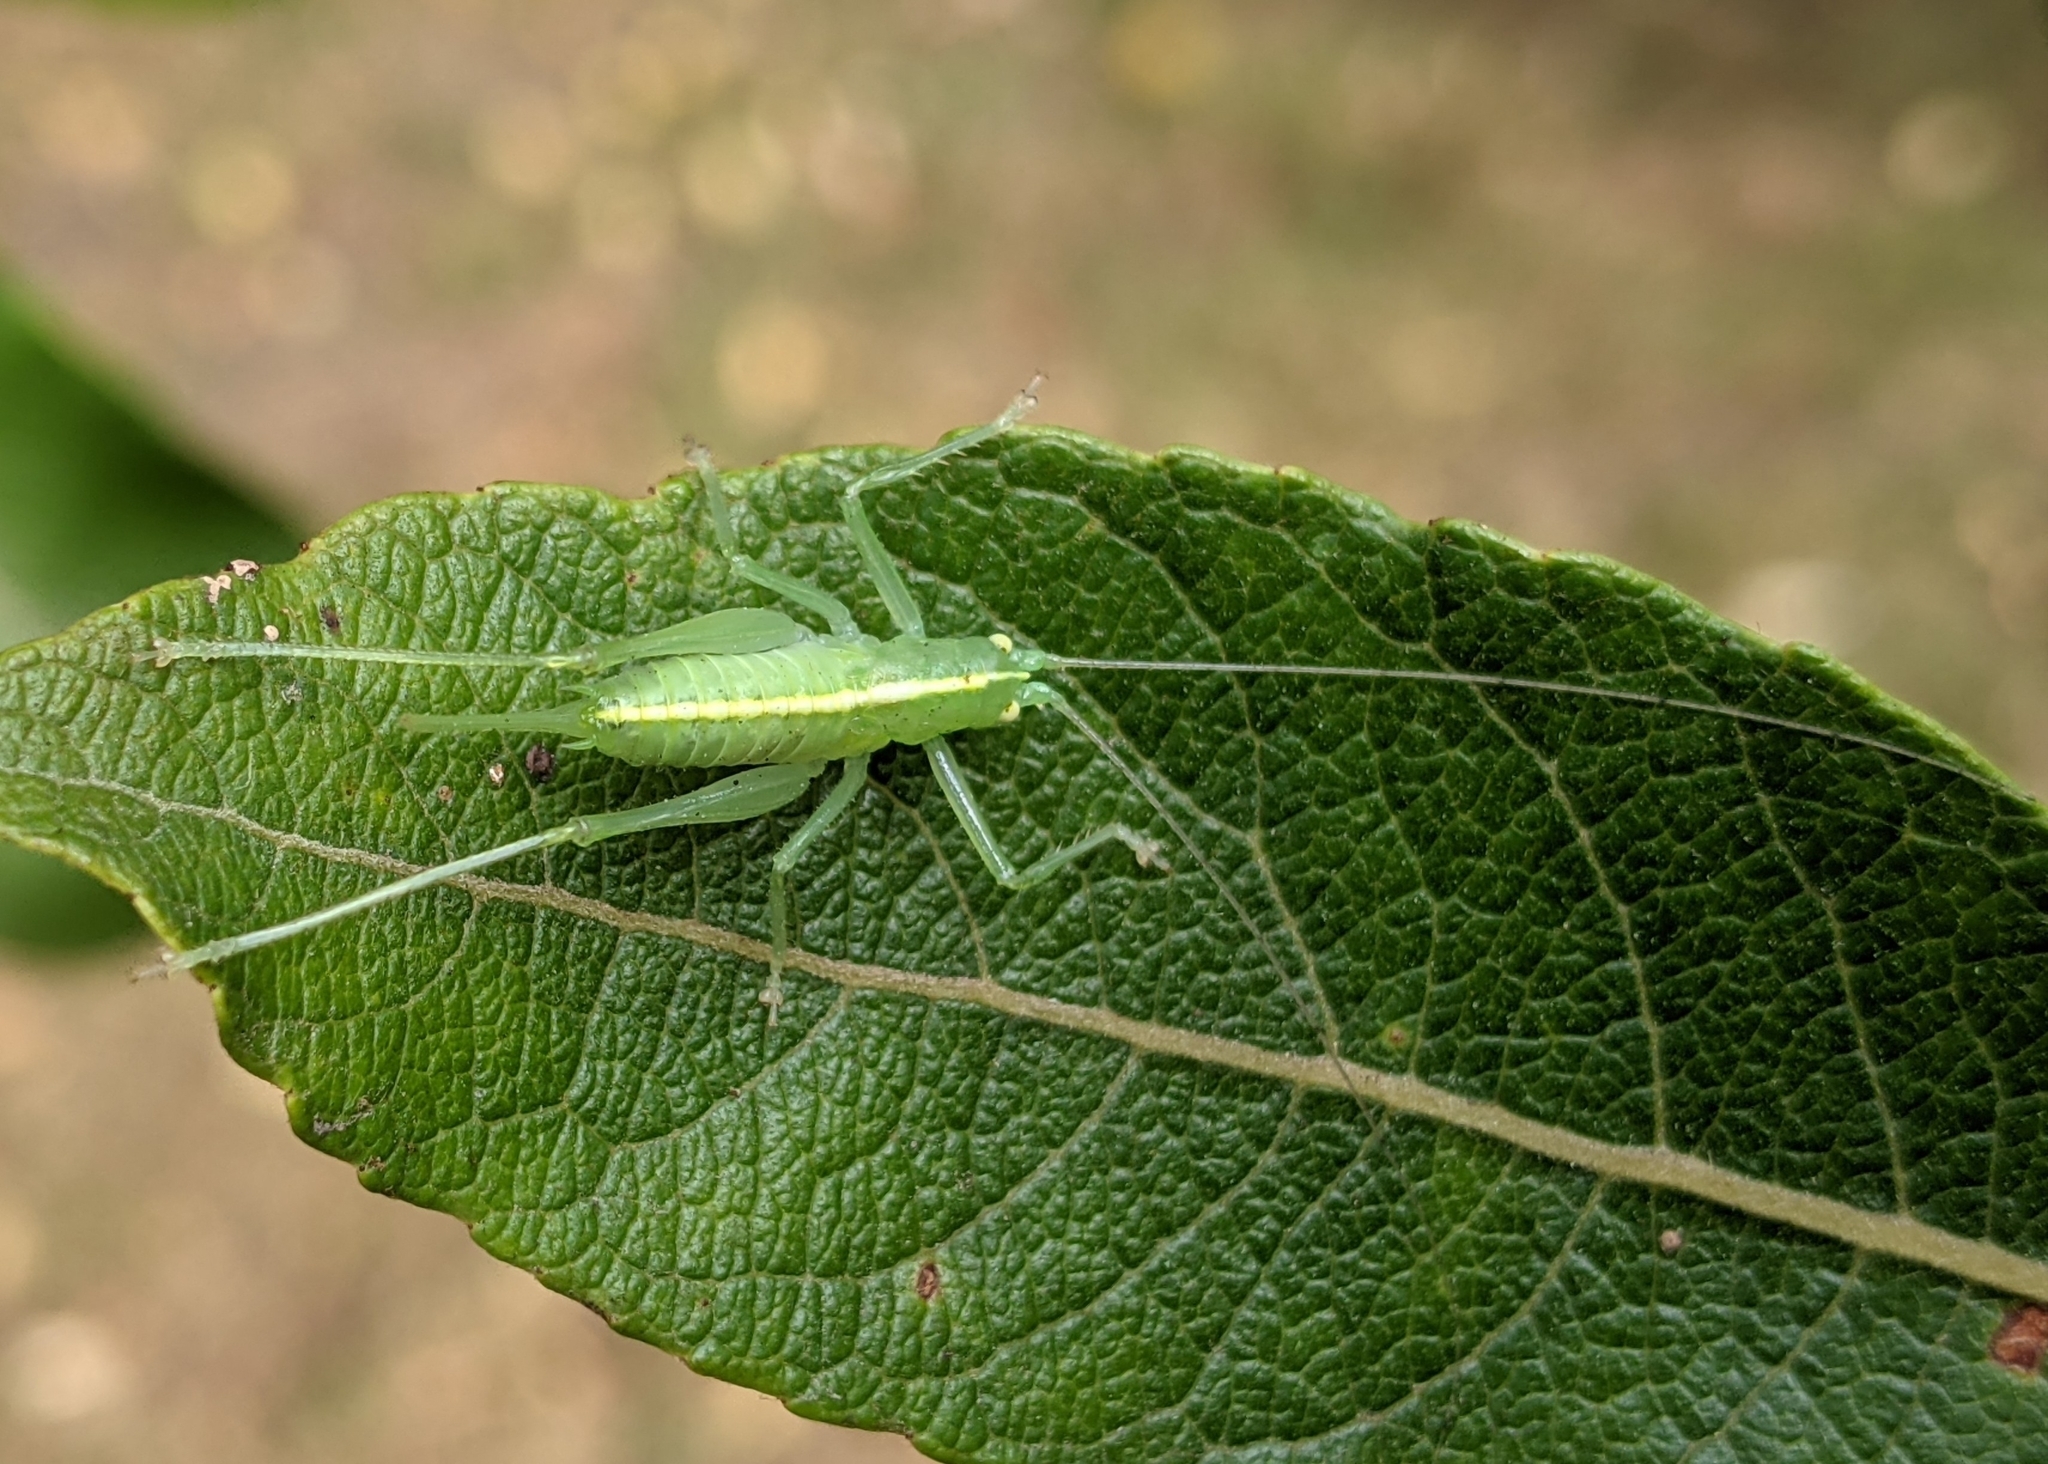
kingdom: Animalia
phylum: Arthropoda
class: Insecta
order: Orthoptera
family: Tettigoniidae
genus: Meconema
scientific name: Meconema meridionale
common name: Southern oak bush-cricket
